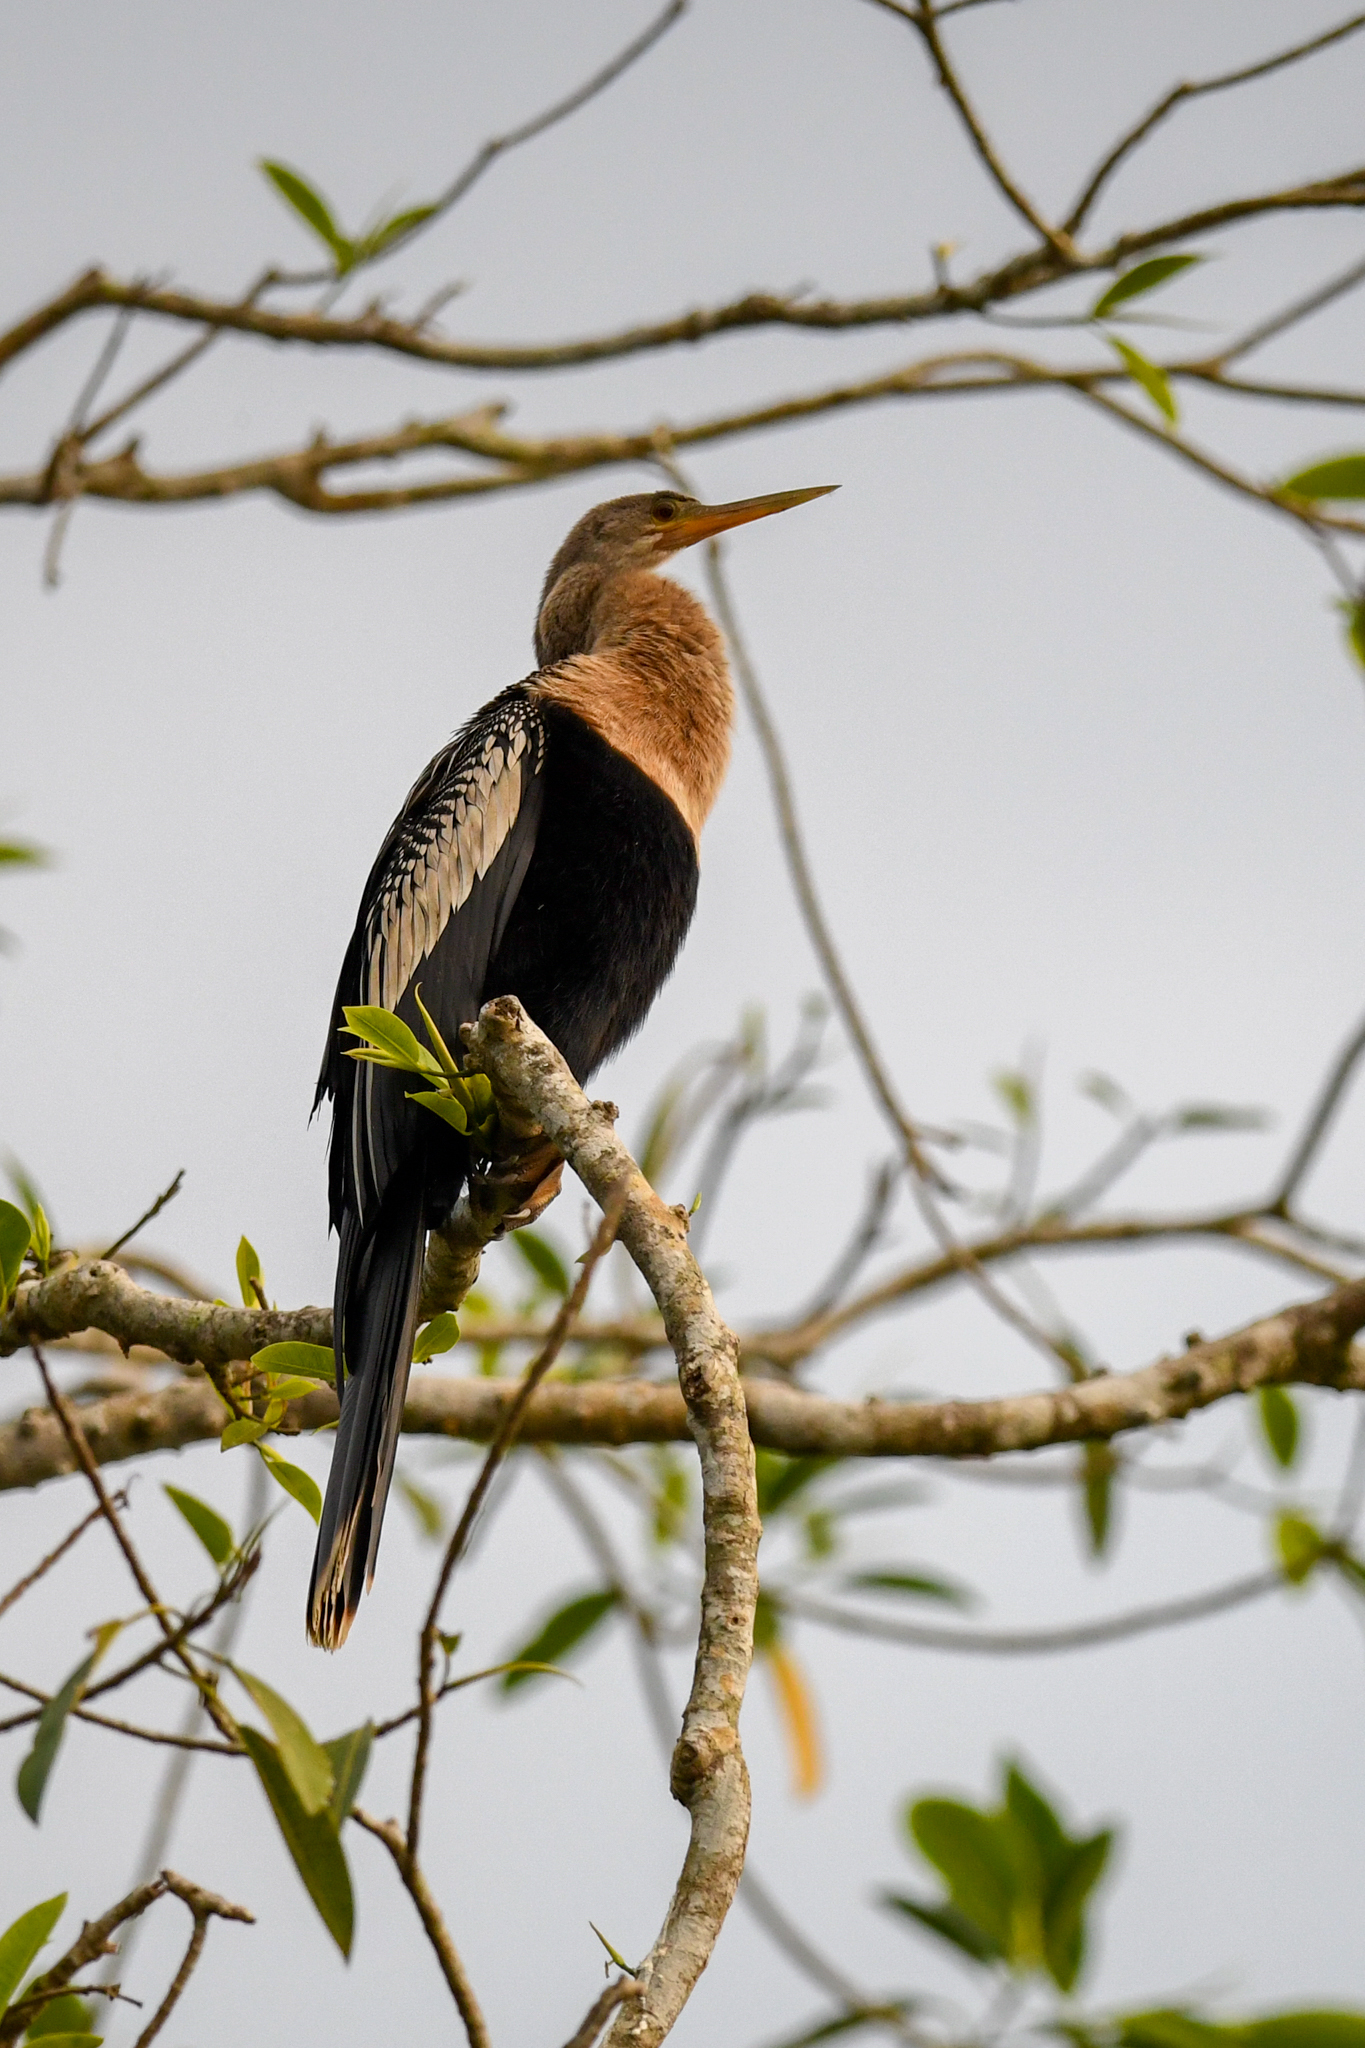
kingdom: Animalia
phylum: Chordata
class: Aves
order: Suliformes
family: Anhingidae
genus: Anhinga
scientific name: Anhinga anhinga
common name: Anhinga
